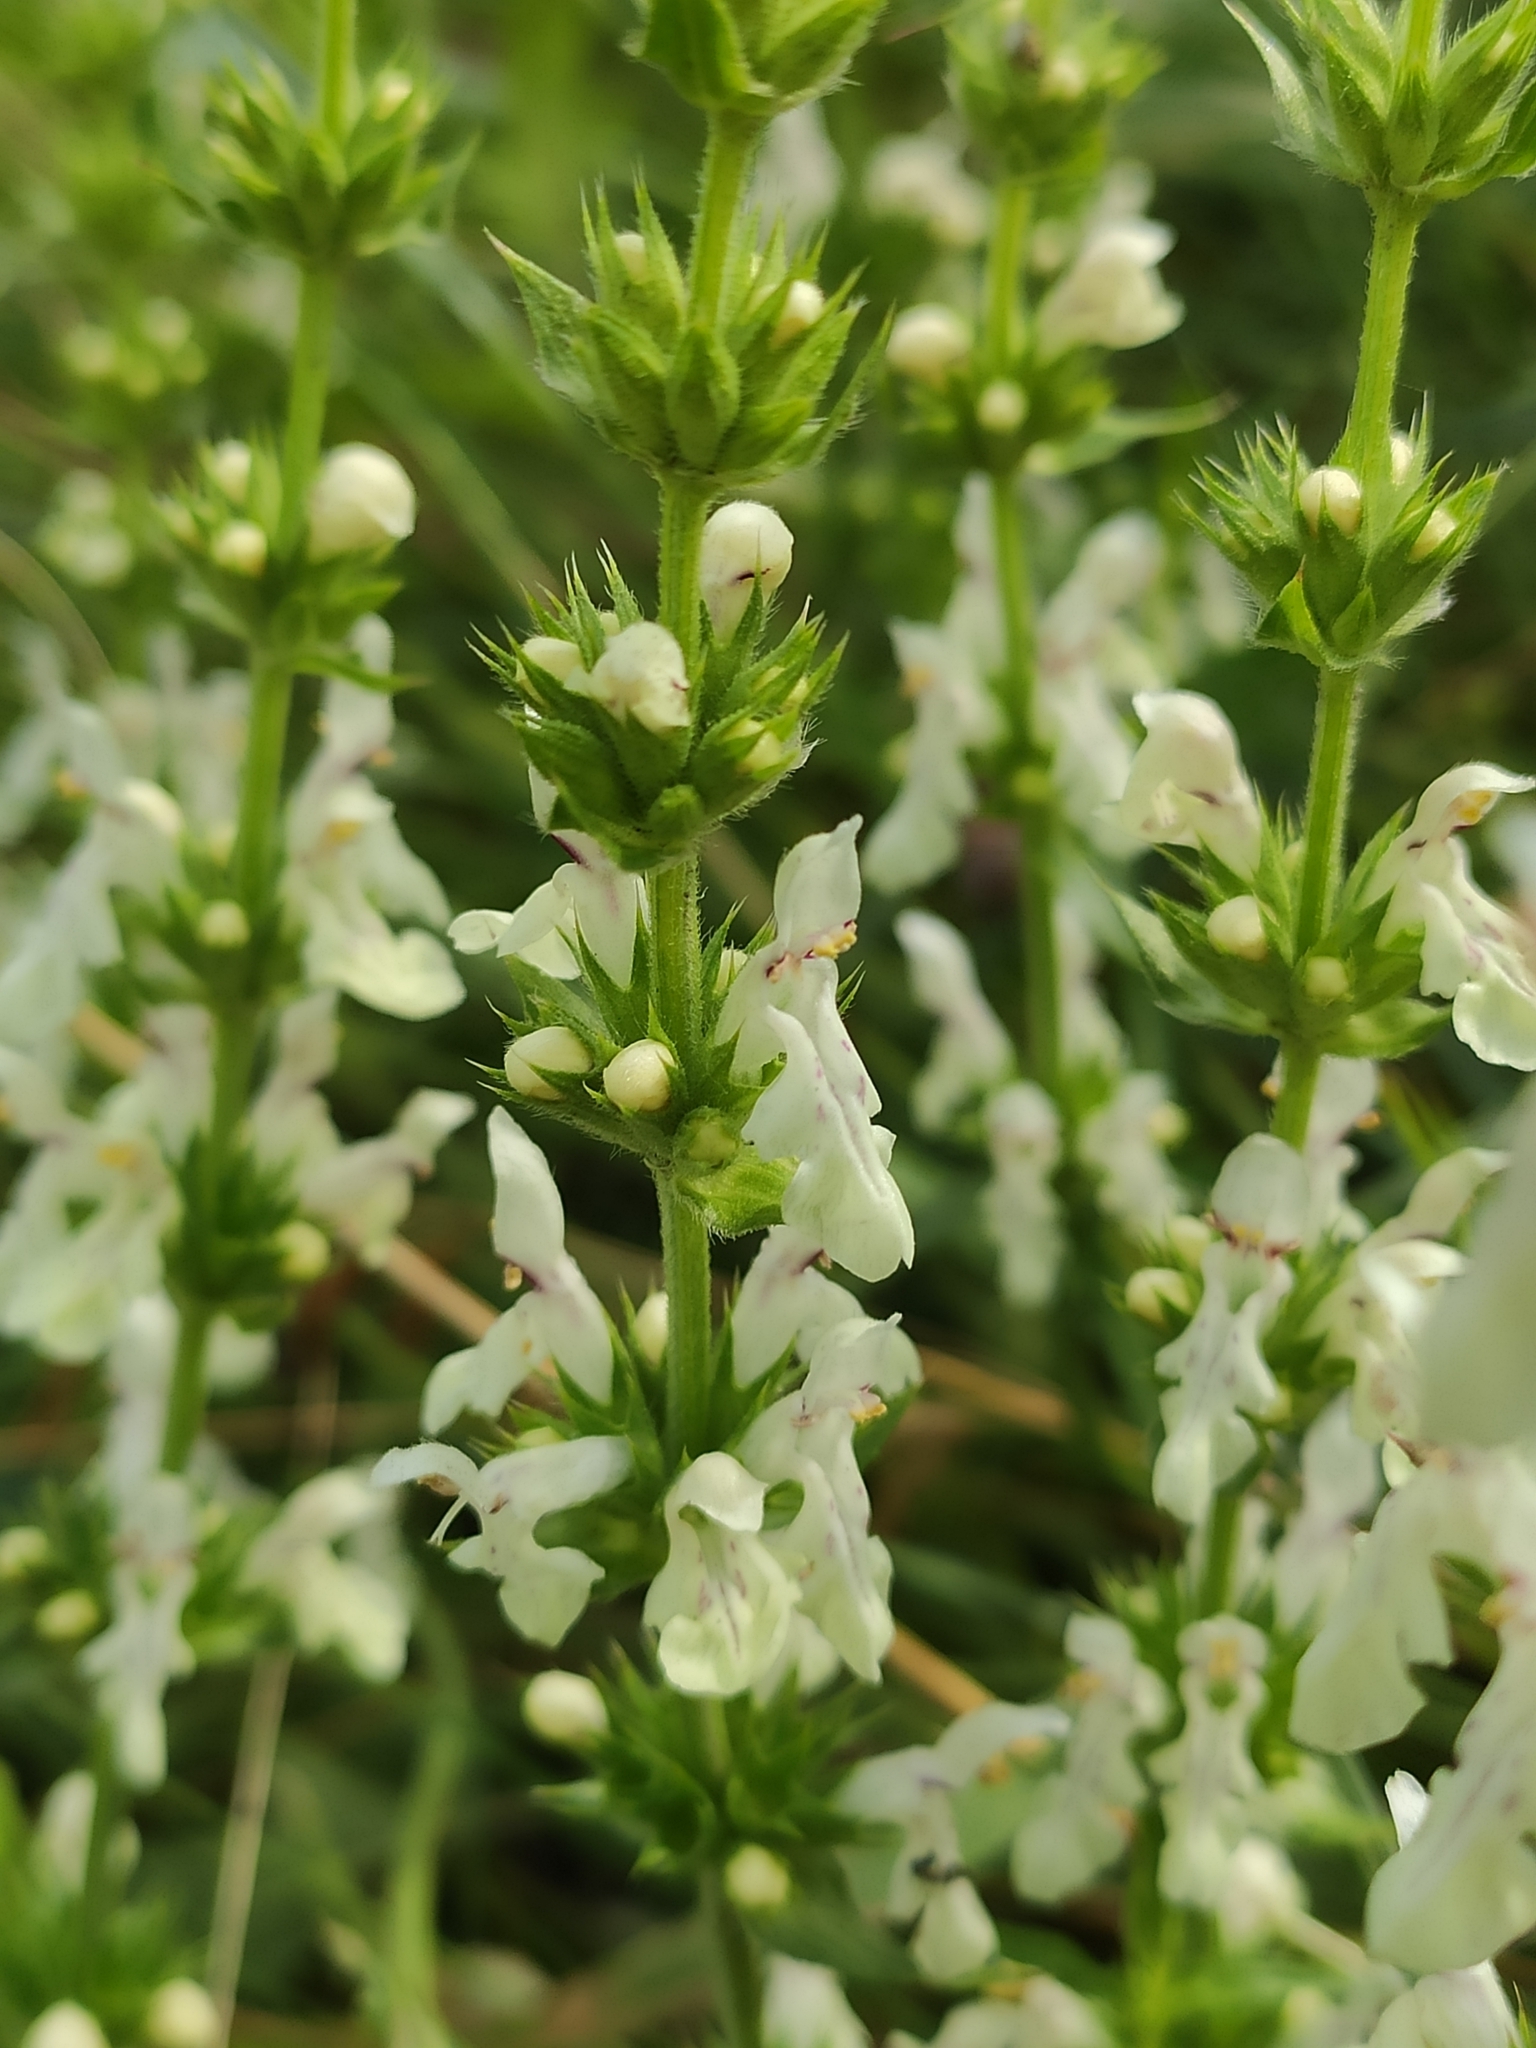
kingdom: Plantae
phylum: Tracheophyta
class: Magnoliopsida
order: Lamiales
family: Lamiaceae
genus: Stachys
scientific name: Stachys recta
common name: Perennial yellow-woundwort
